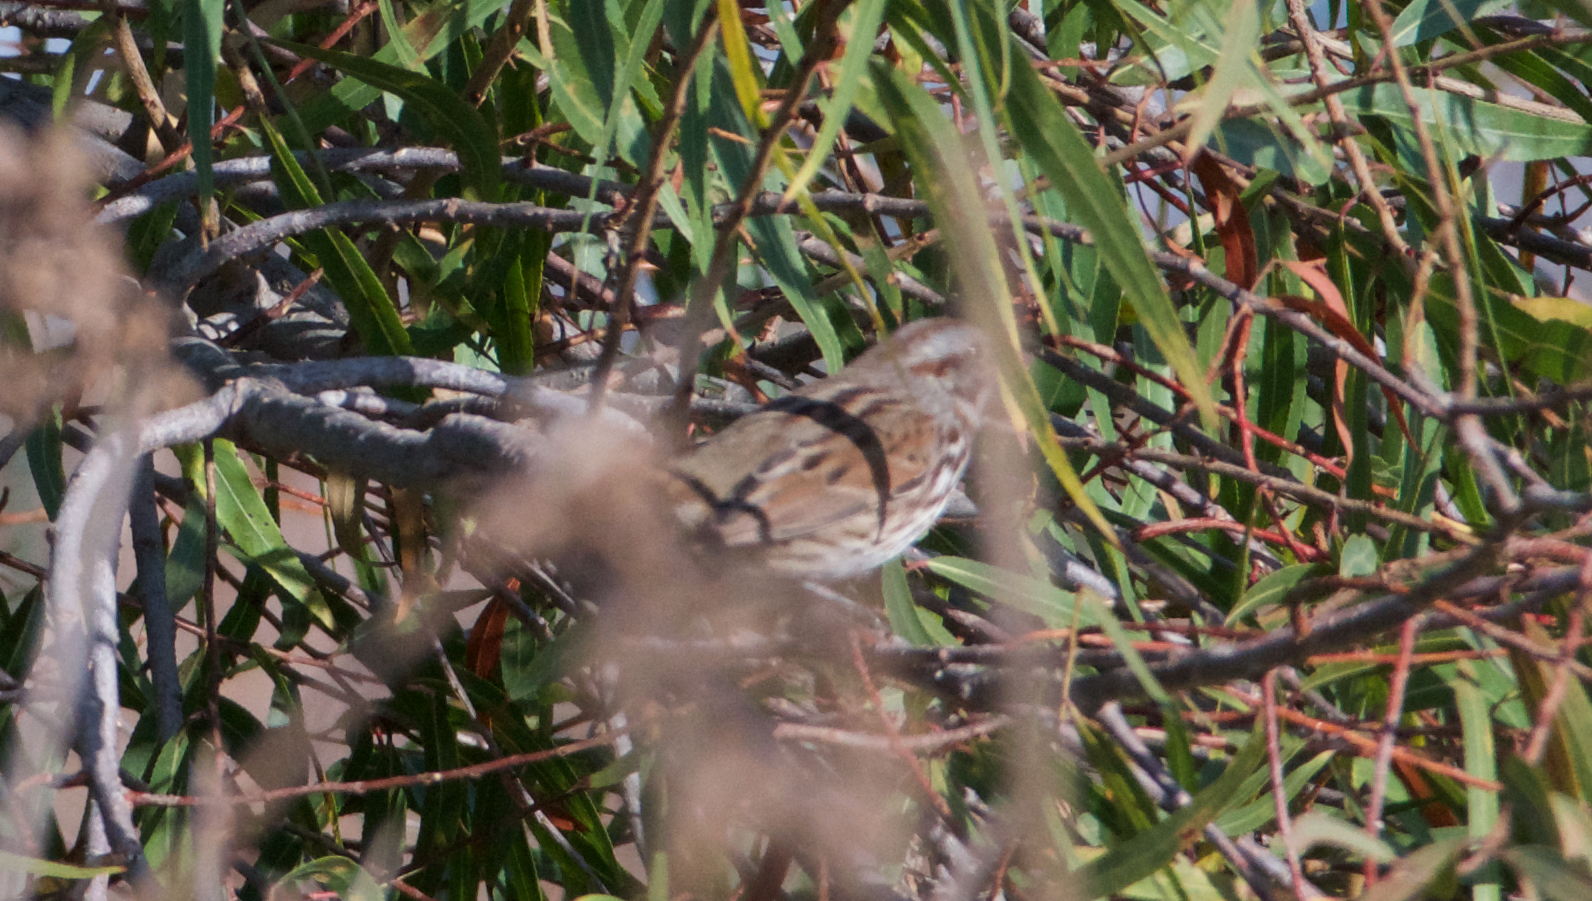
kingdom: Animalia
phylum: Chordata
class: Aves
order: Passeriformes
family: Passerellidae
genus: Melospiza
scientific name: Melospiza melodia
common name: Song sparrow
